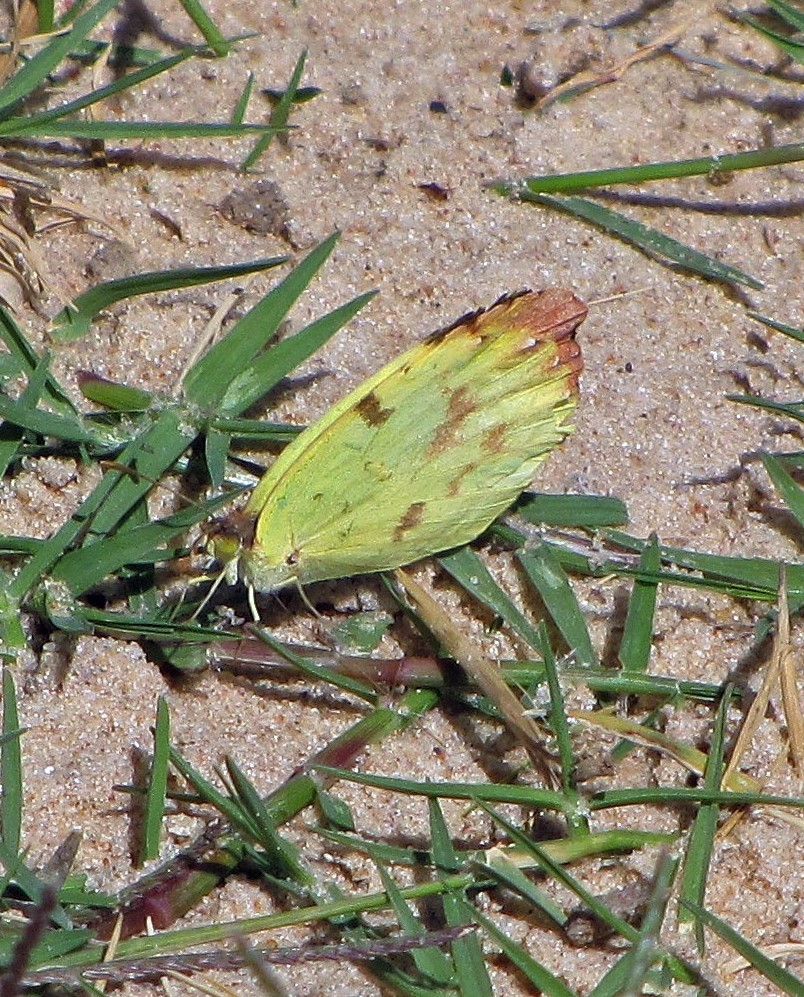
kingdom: Animalia
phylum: Arthropoda
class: Insecta
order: Lepidoptera
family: Pieridae
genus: Teriocolias
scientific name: Teriocolias
